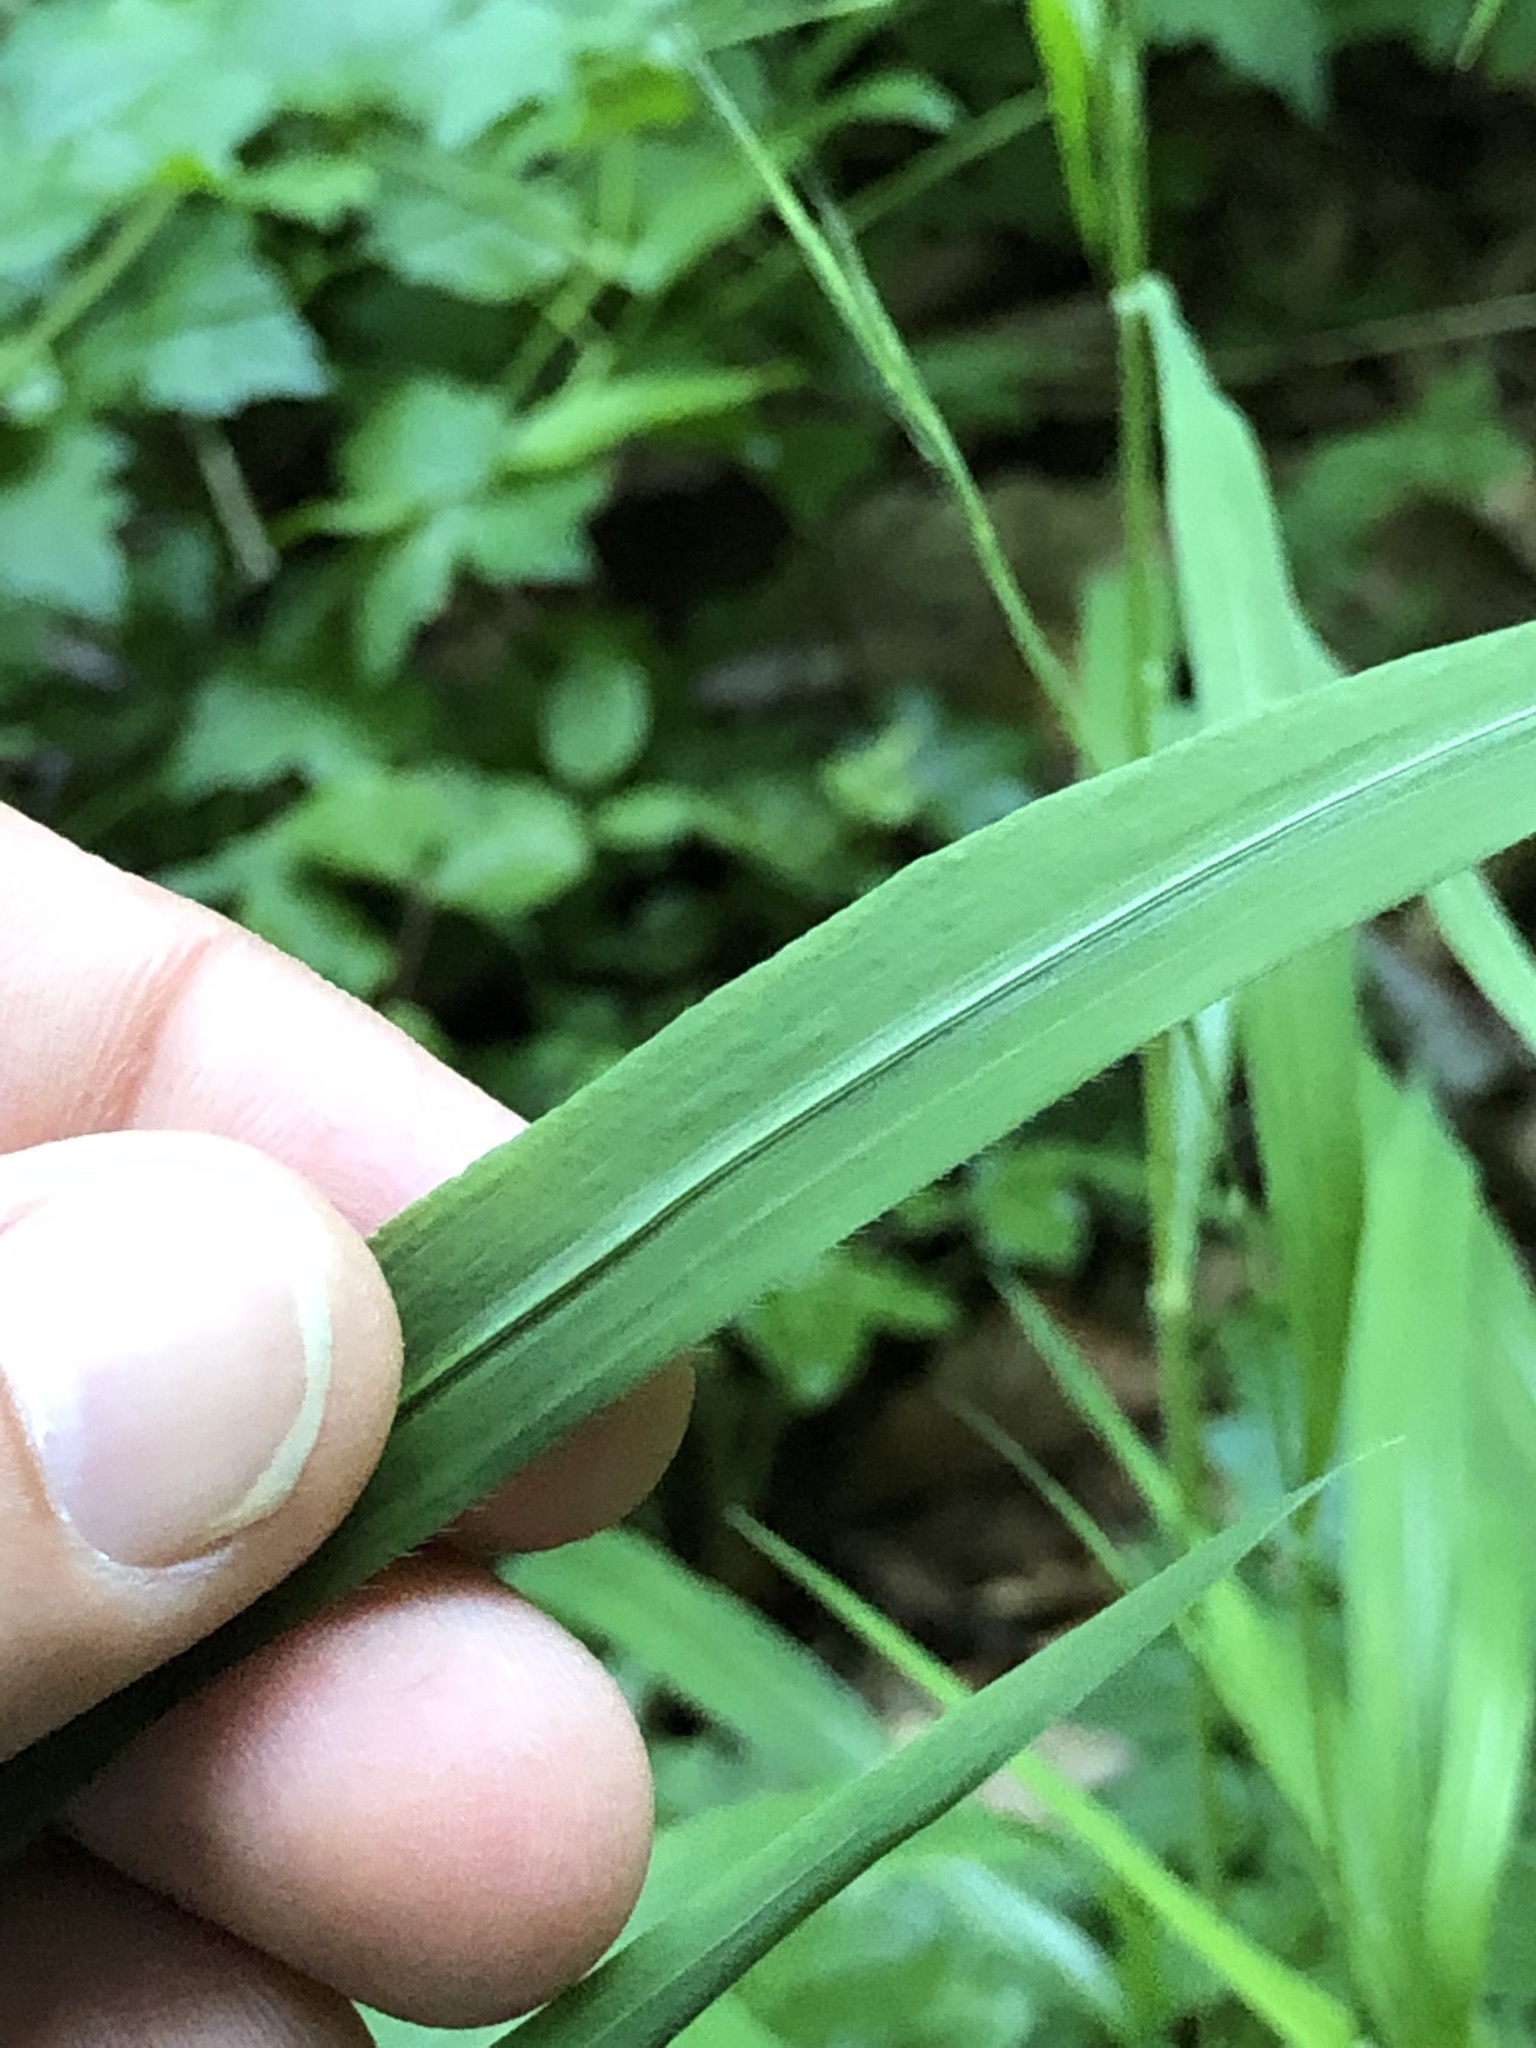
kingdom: Plantae
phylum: Tracheophyta
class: Liliopsida
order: Poales
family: Poaceae
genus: Brachypodium
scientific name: Brachypodium sylvaticum
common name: False-brome
